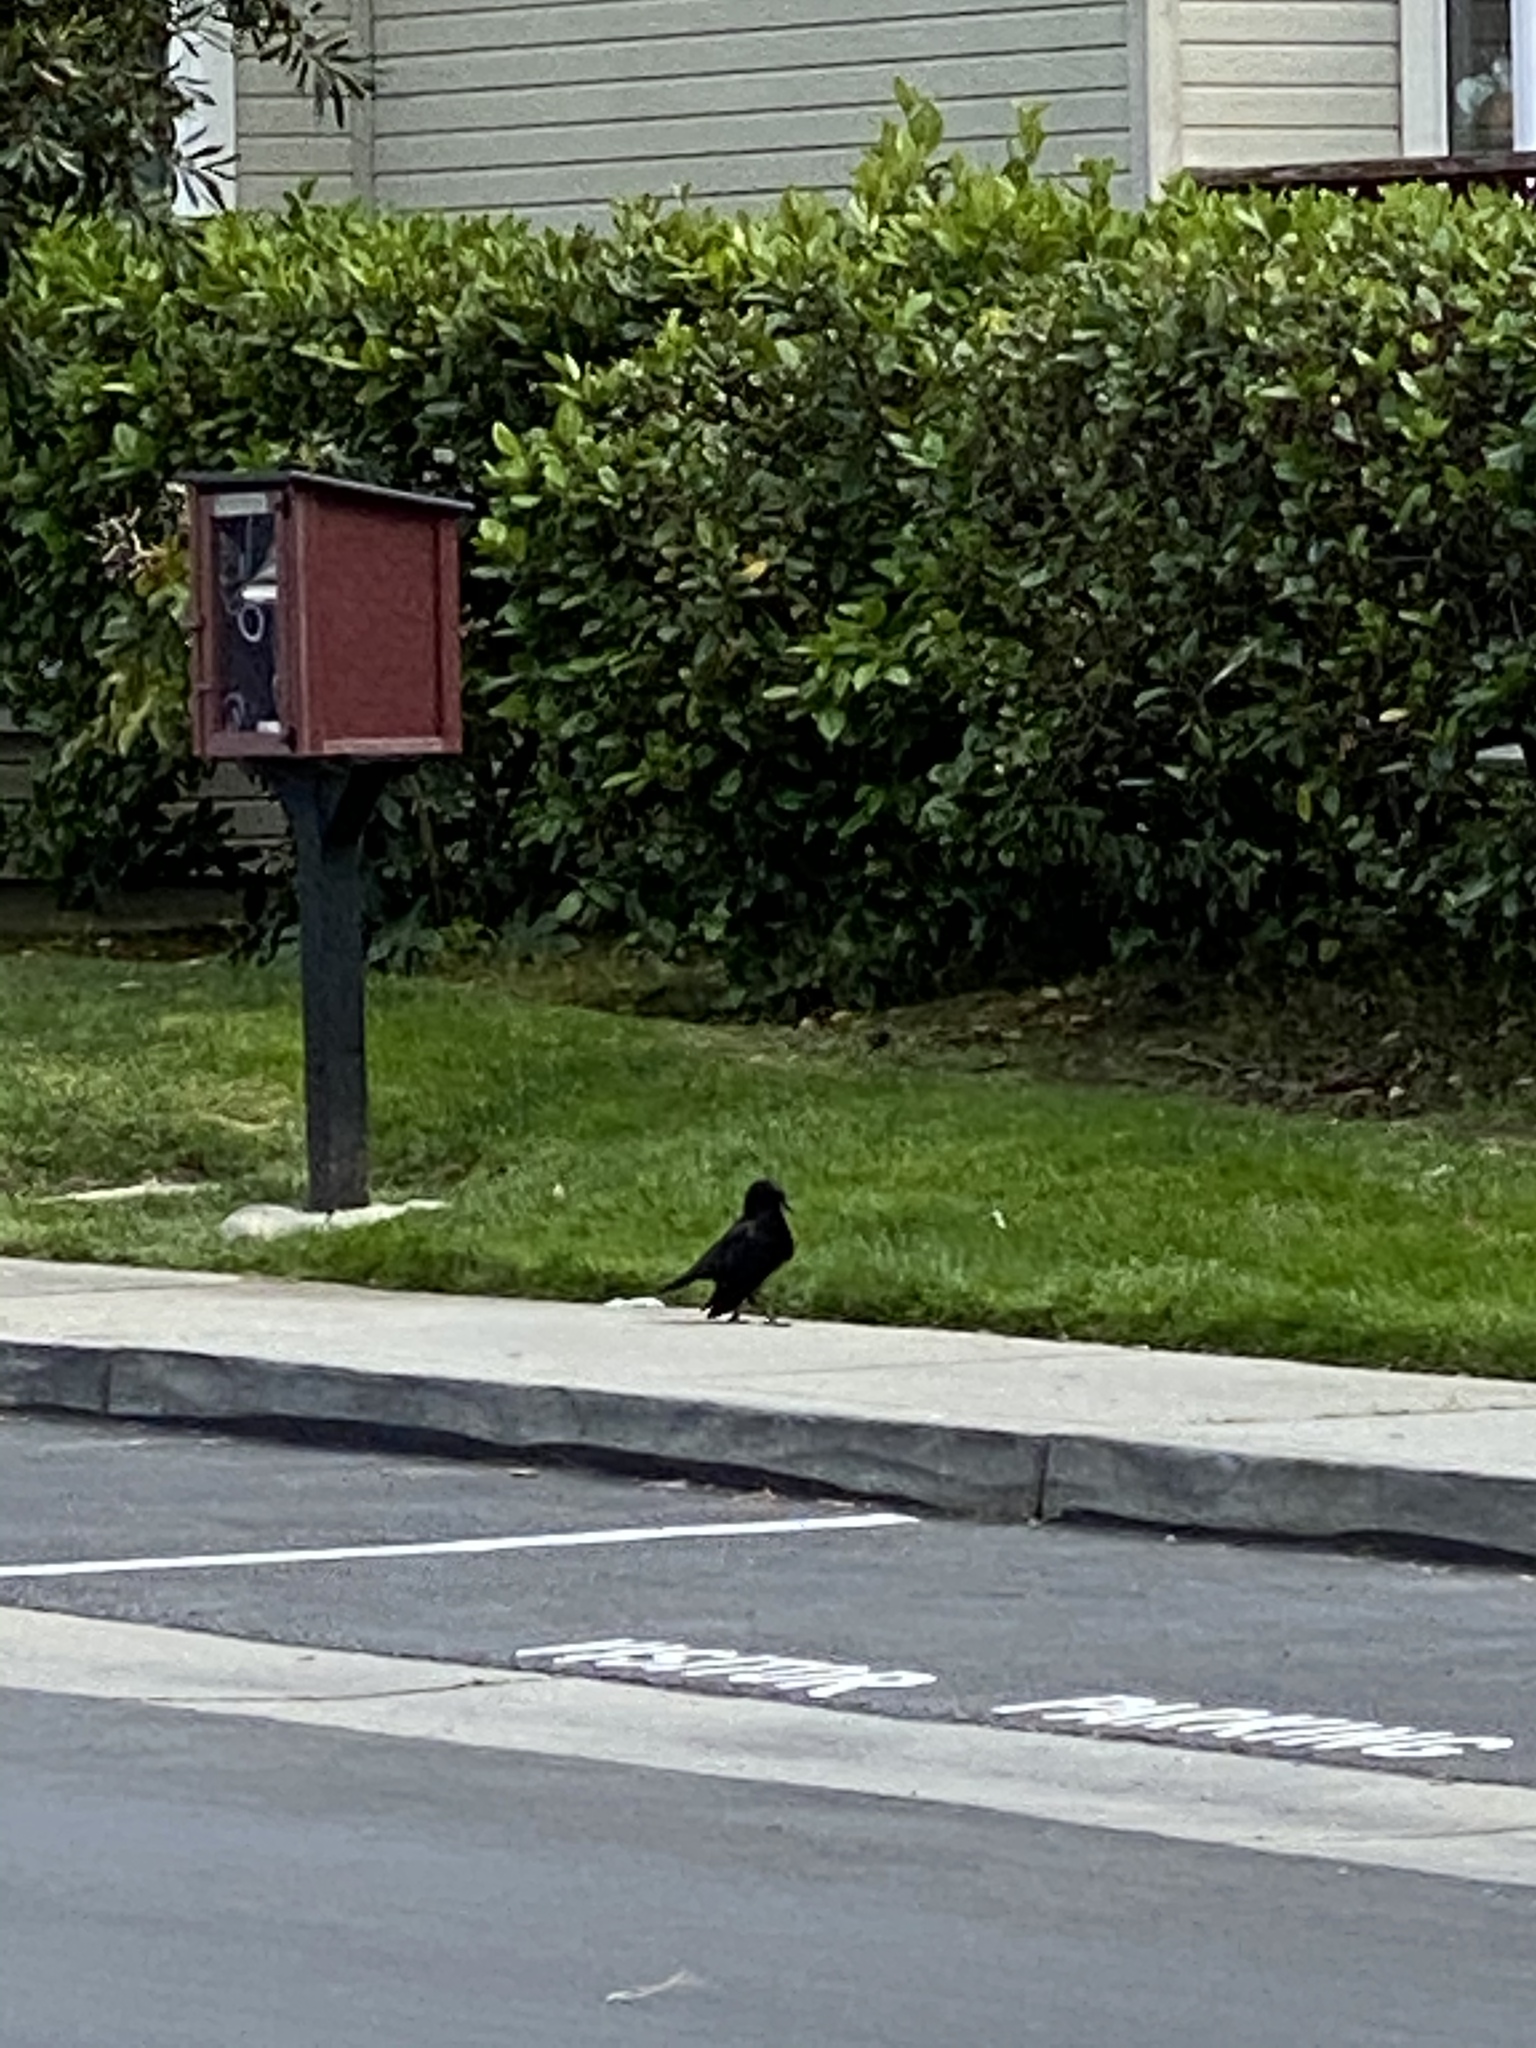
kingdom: Animalia
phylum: Chordata
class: Aves
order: Passeriformes
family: Corvidae
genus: Corvus
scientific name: Corvus brachyrhynchos
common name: American crow
